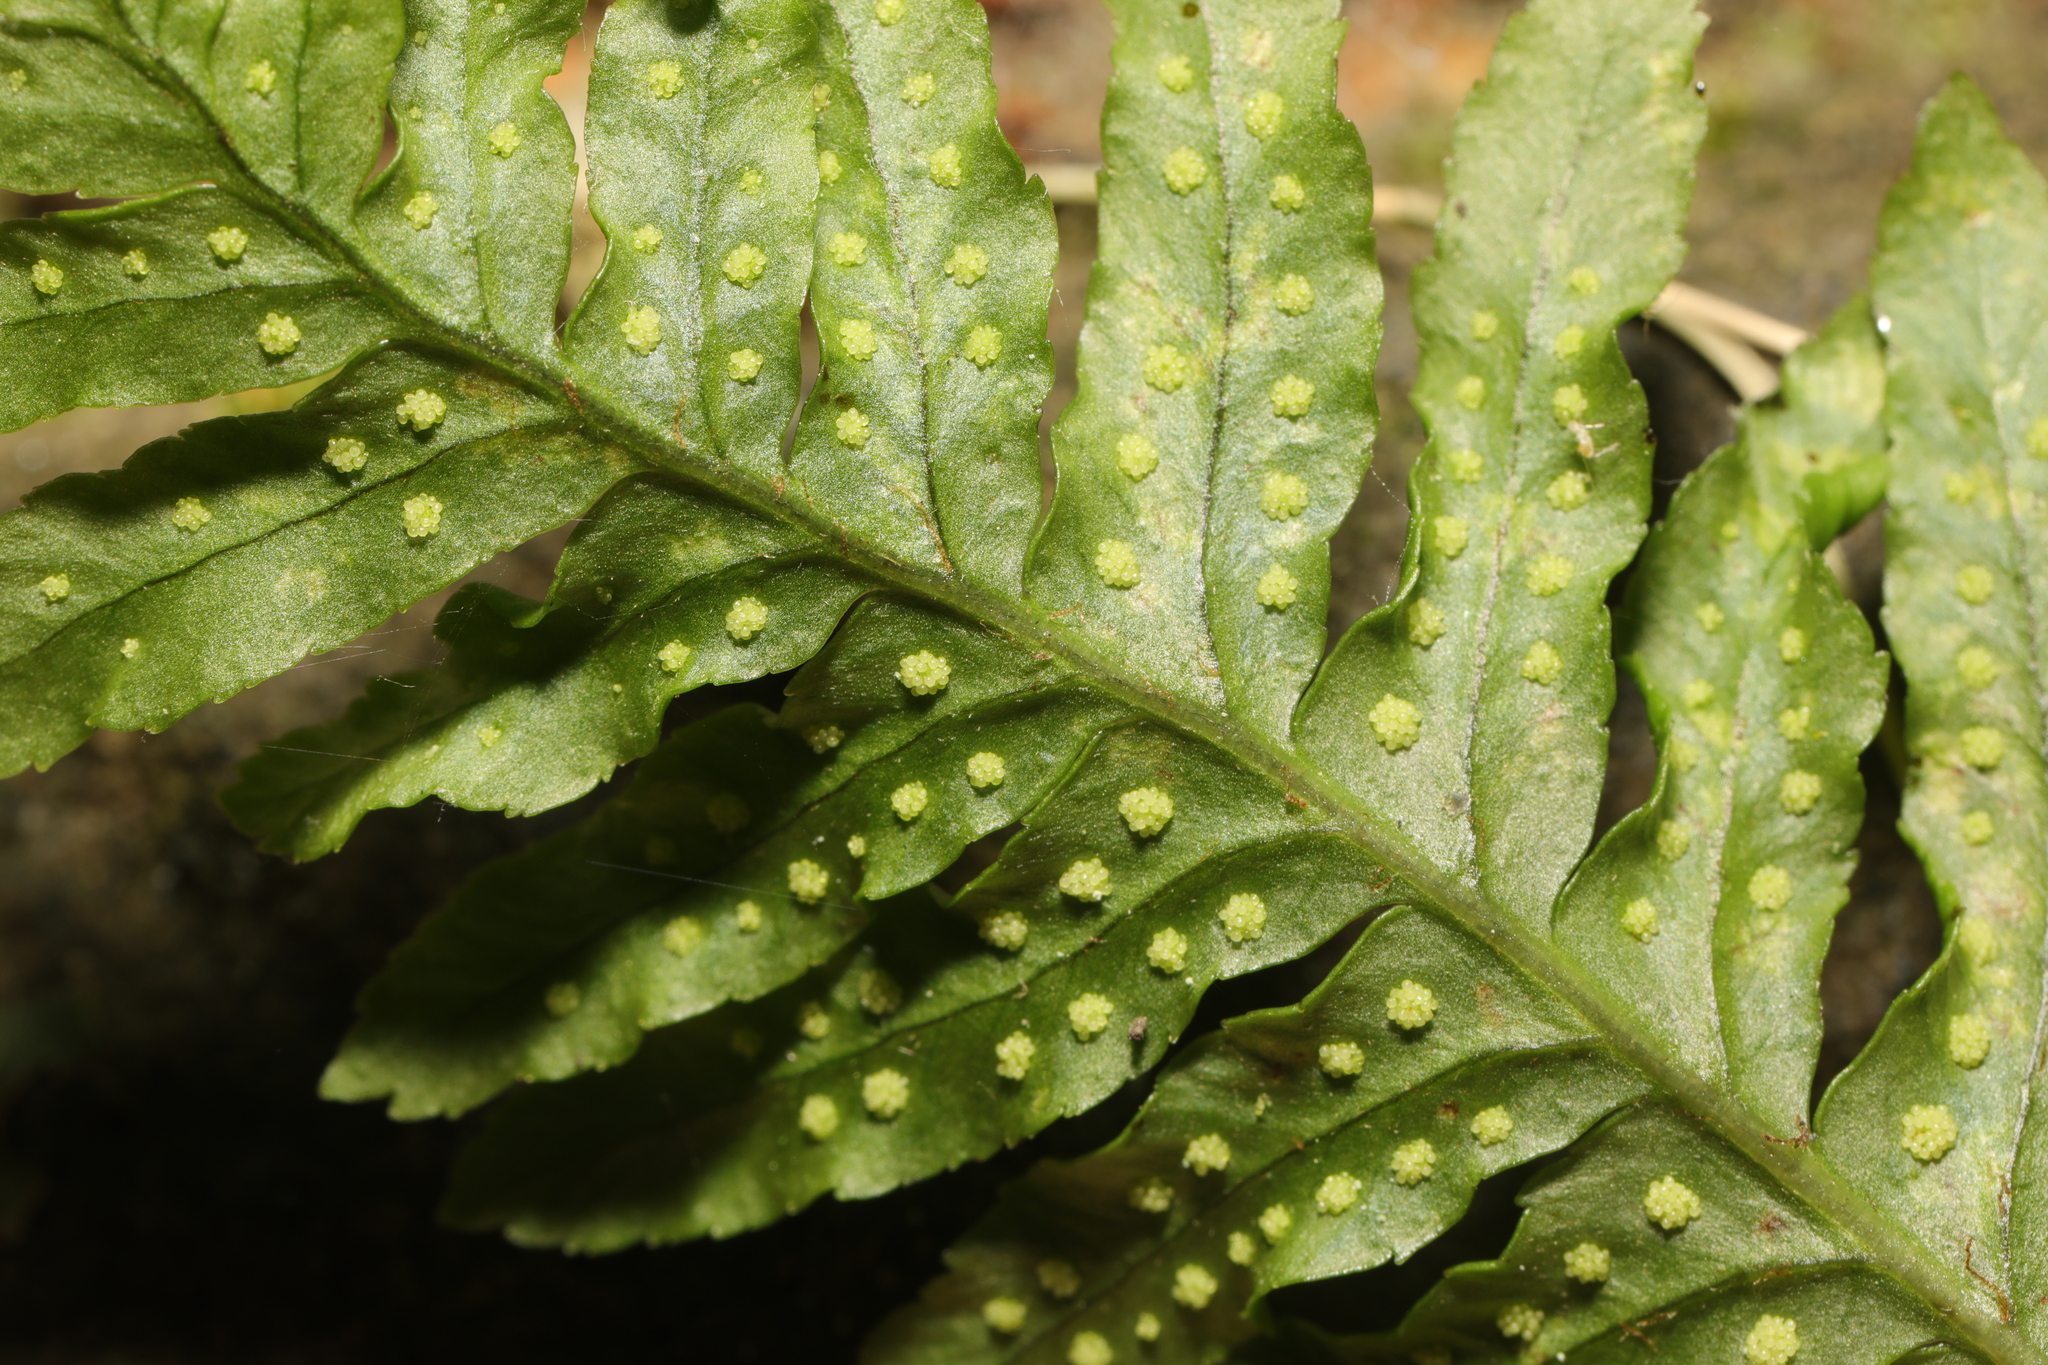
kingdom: Plantae
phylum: Tracheophyta
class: Polypodiopsida
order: Polypodiales
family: Polypodiaceae
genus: Polypodium
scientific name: Polypodium
